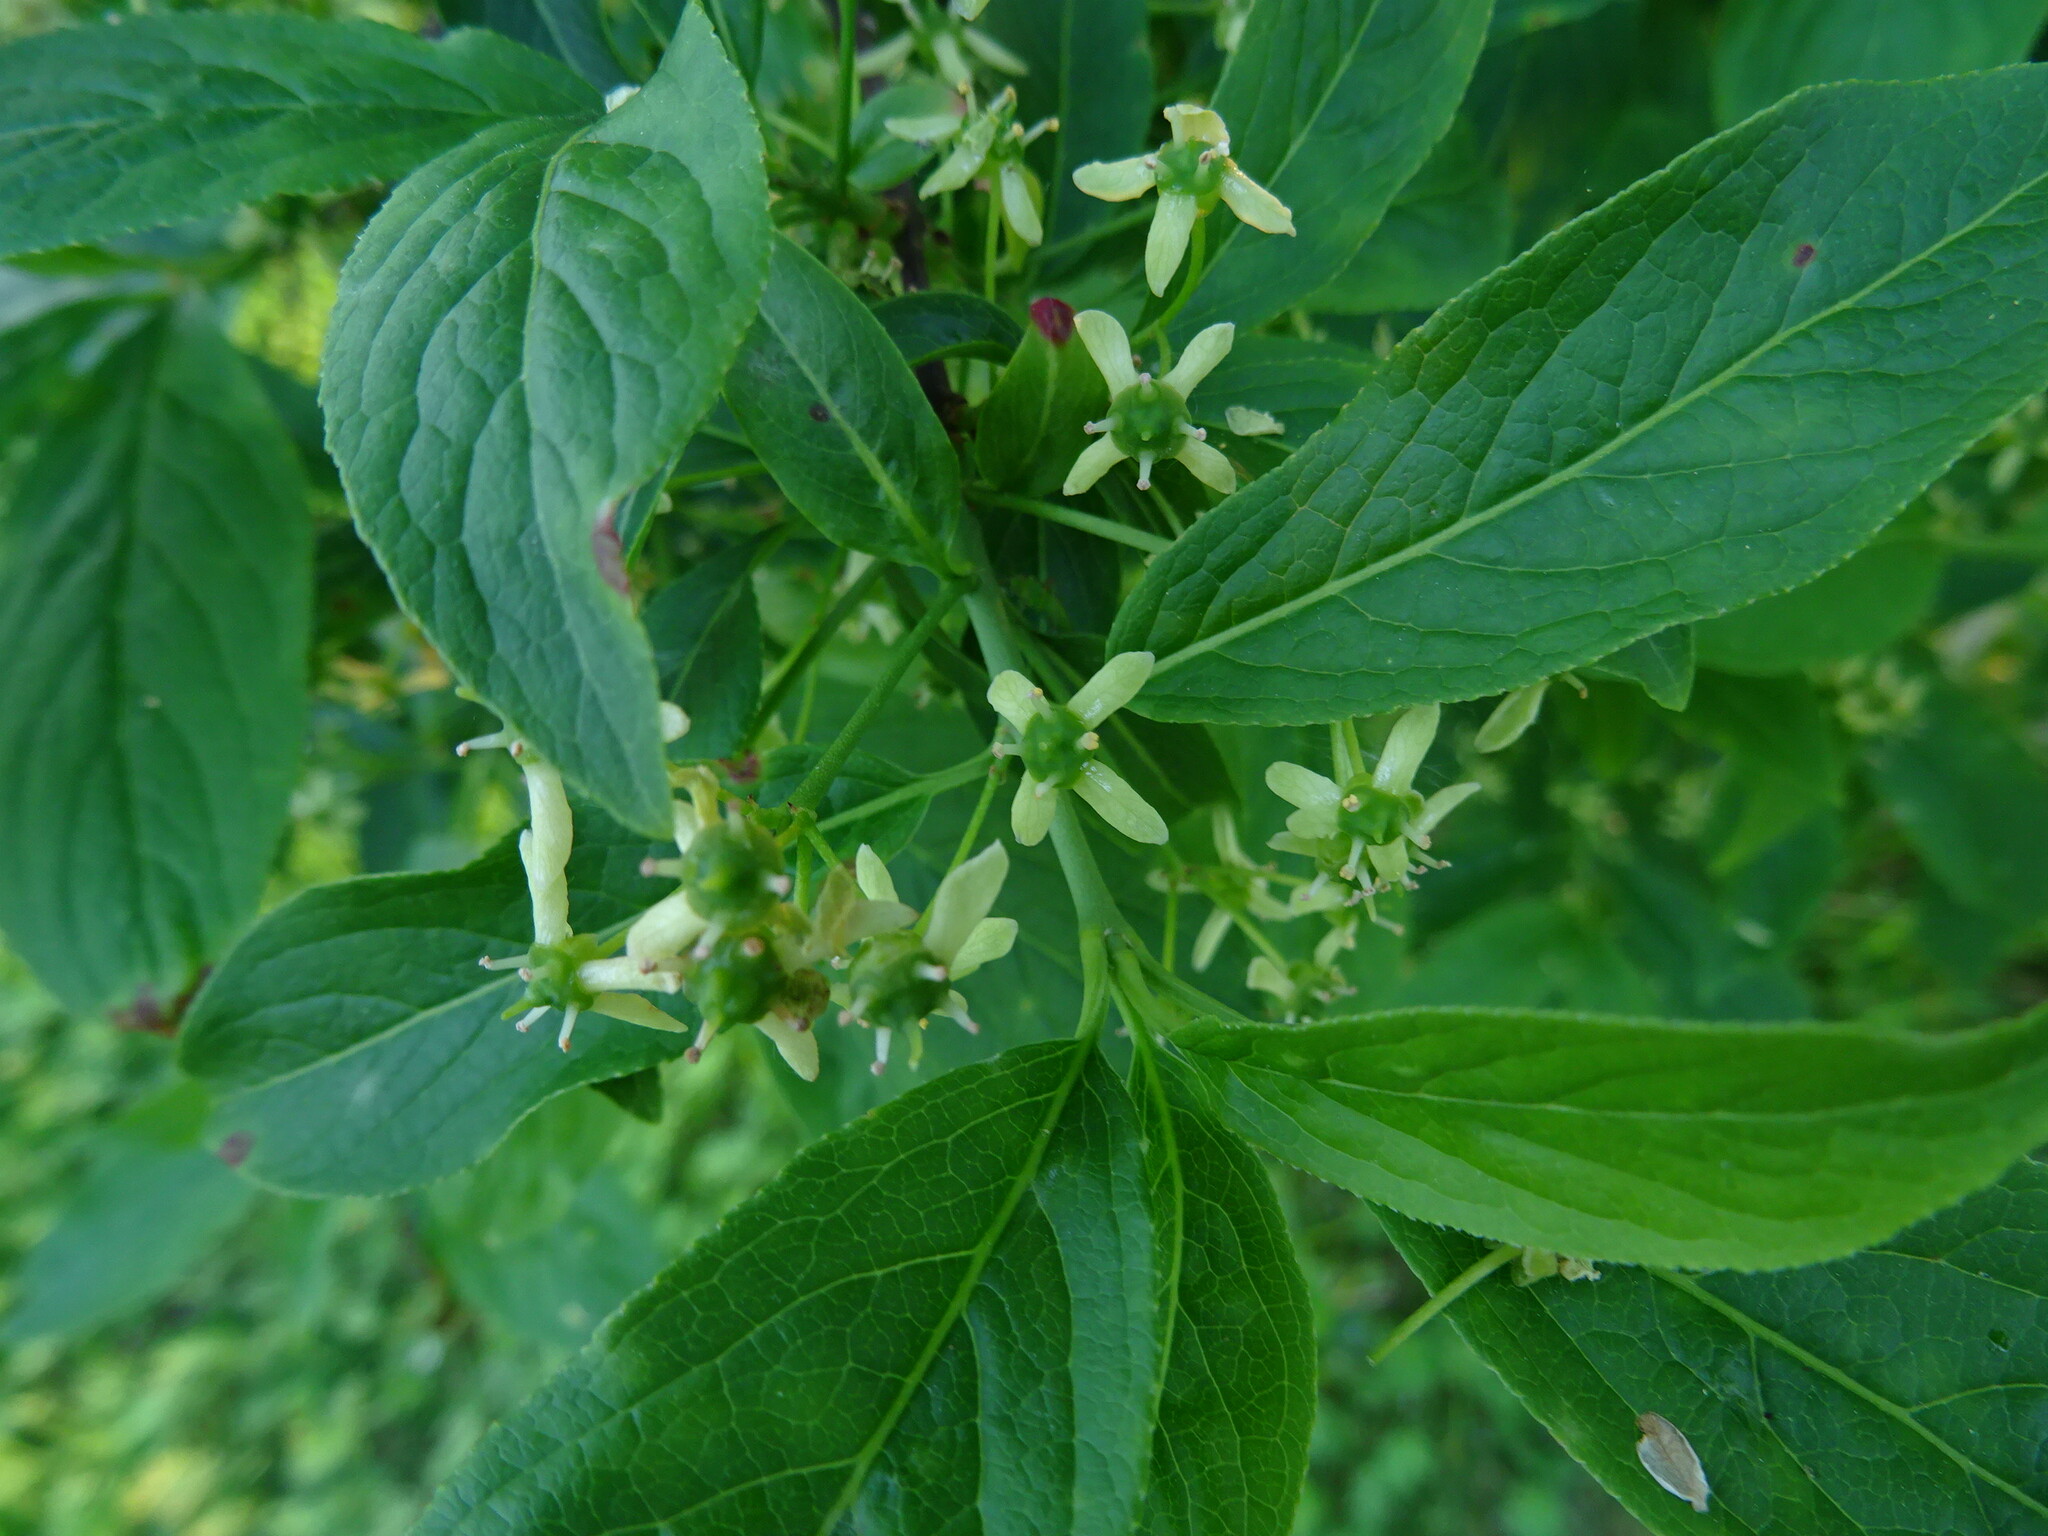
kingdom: Plantae
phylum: Tracheophyta
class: Magnoliopsida
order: Celastrales
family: Celastraceae
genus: Euonymus
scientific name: Euonymus europaeus
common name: Spindle
